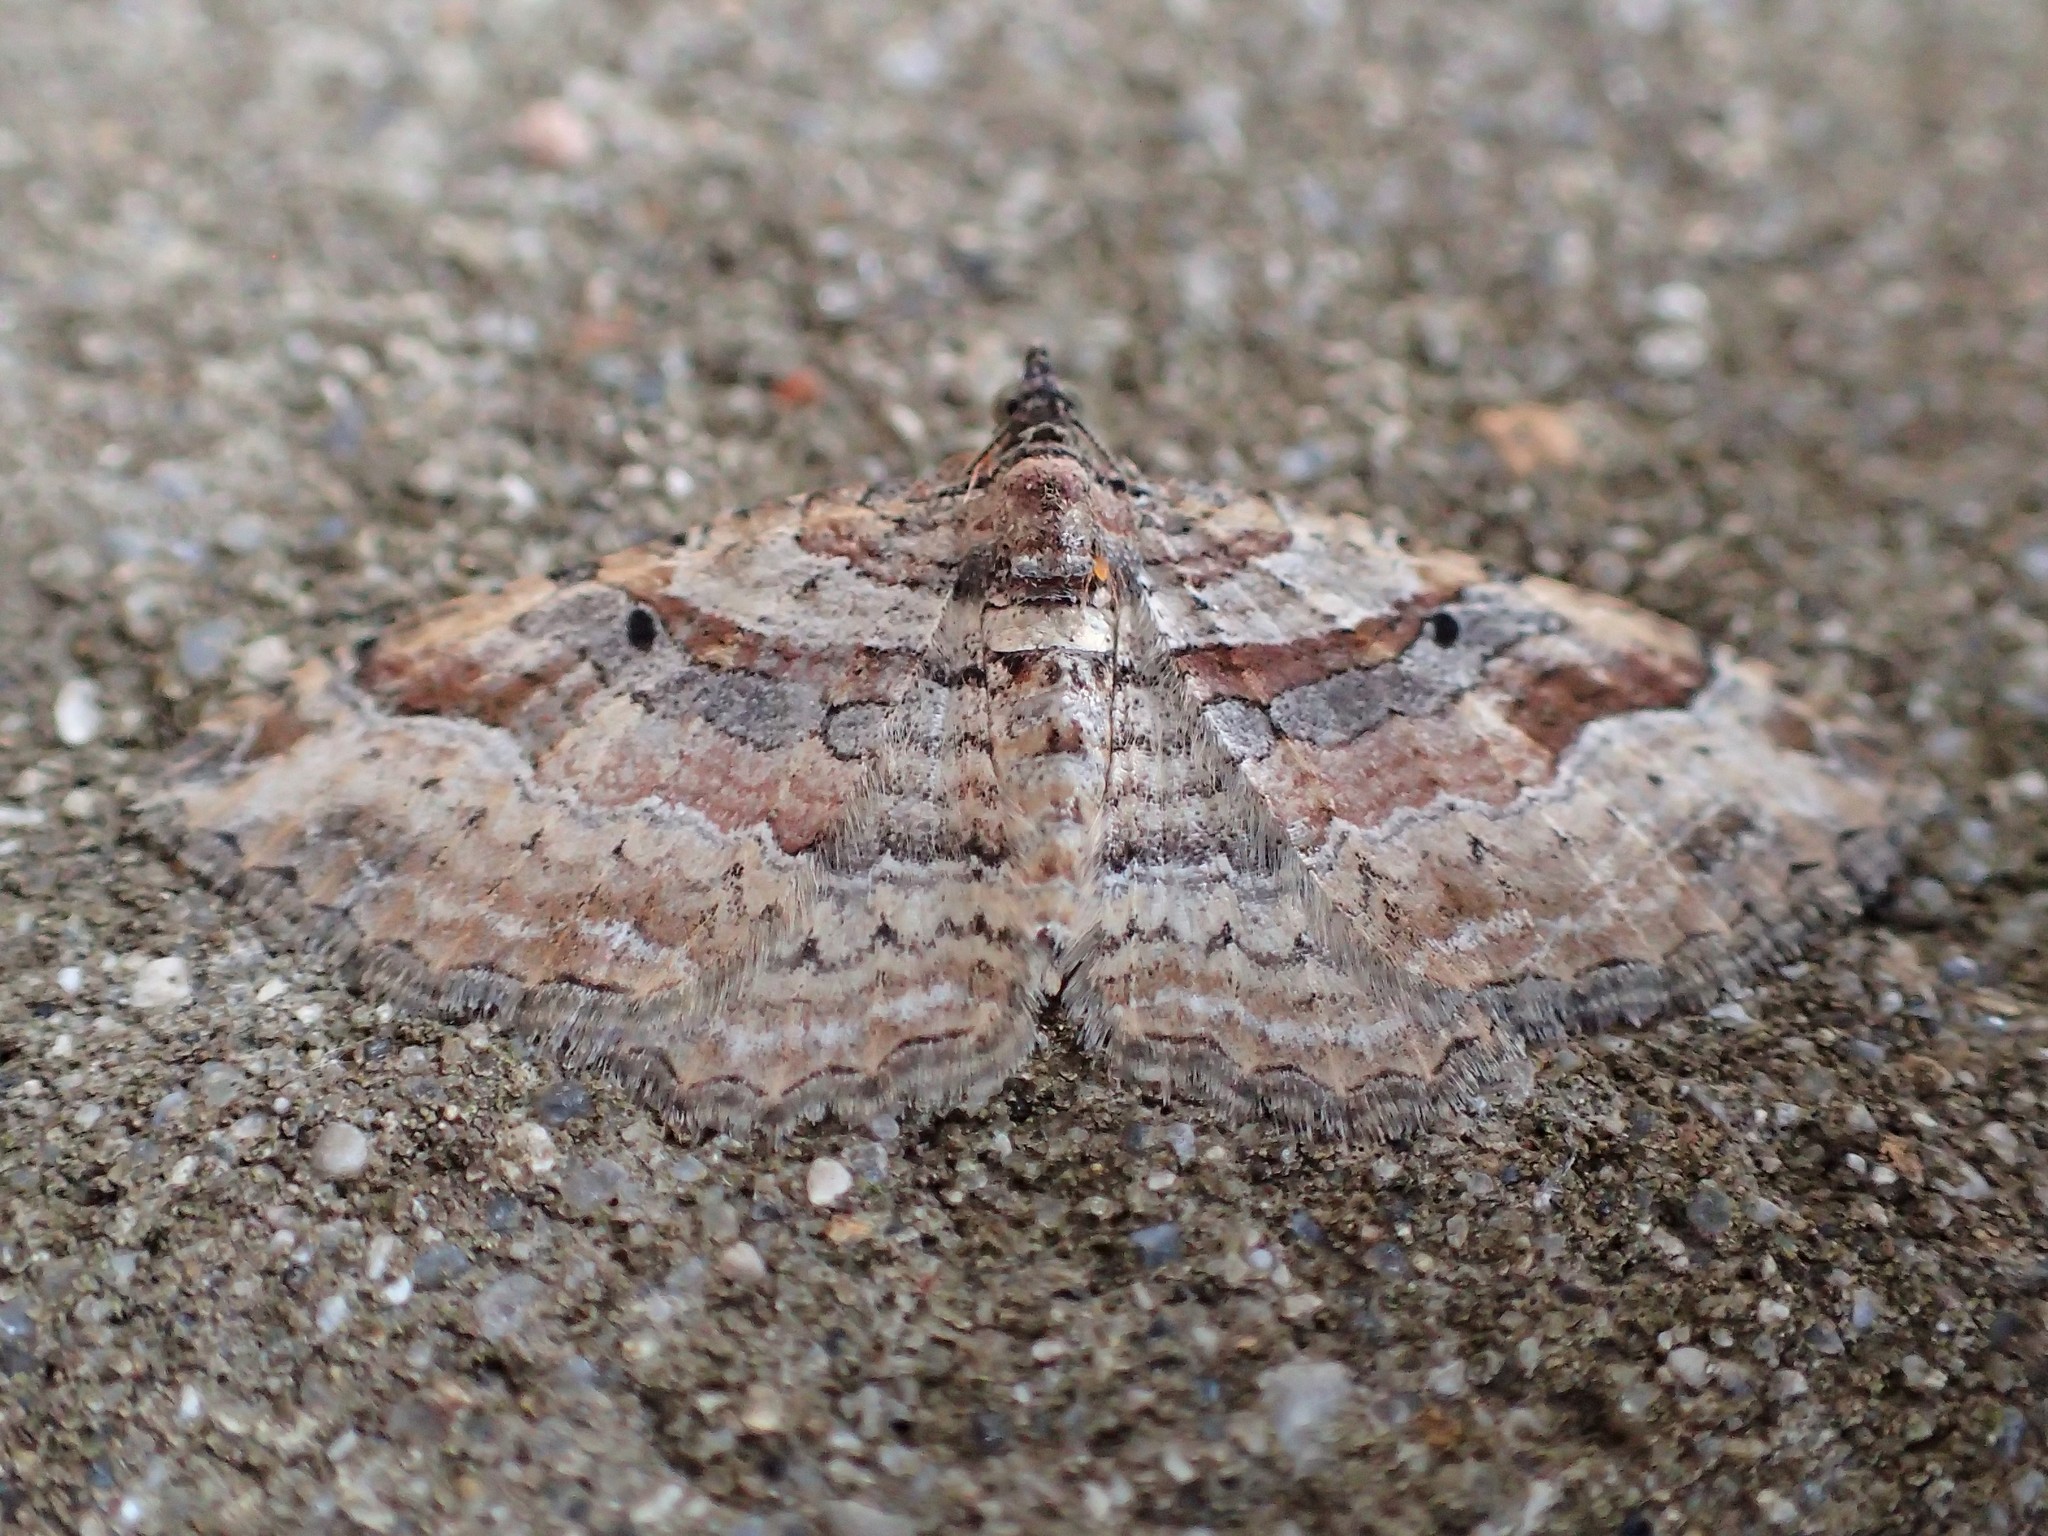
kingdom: Animalia
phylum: Arthropoda
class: Insecta
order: Lepidoptera
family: Geometridae
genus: Costaconvexa
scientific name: Costaconvexa centrostrigaria
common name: Bent-line carpet
